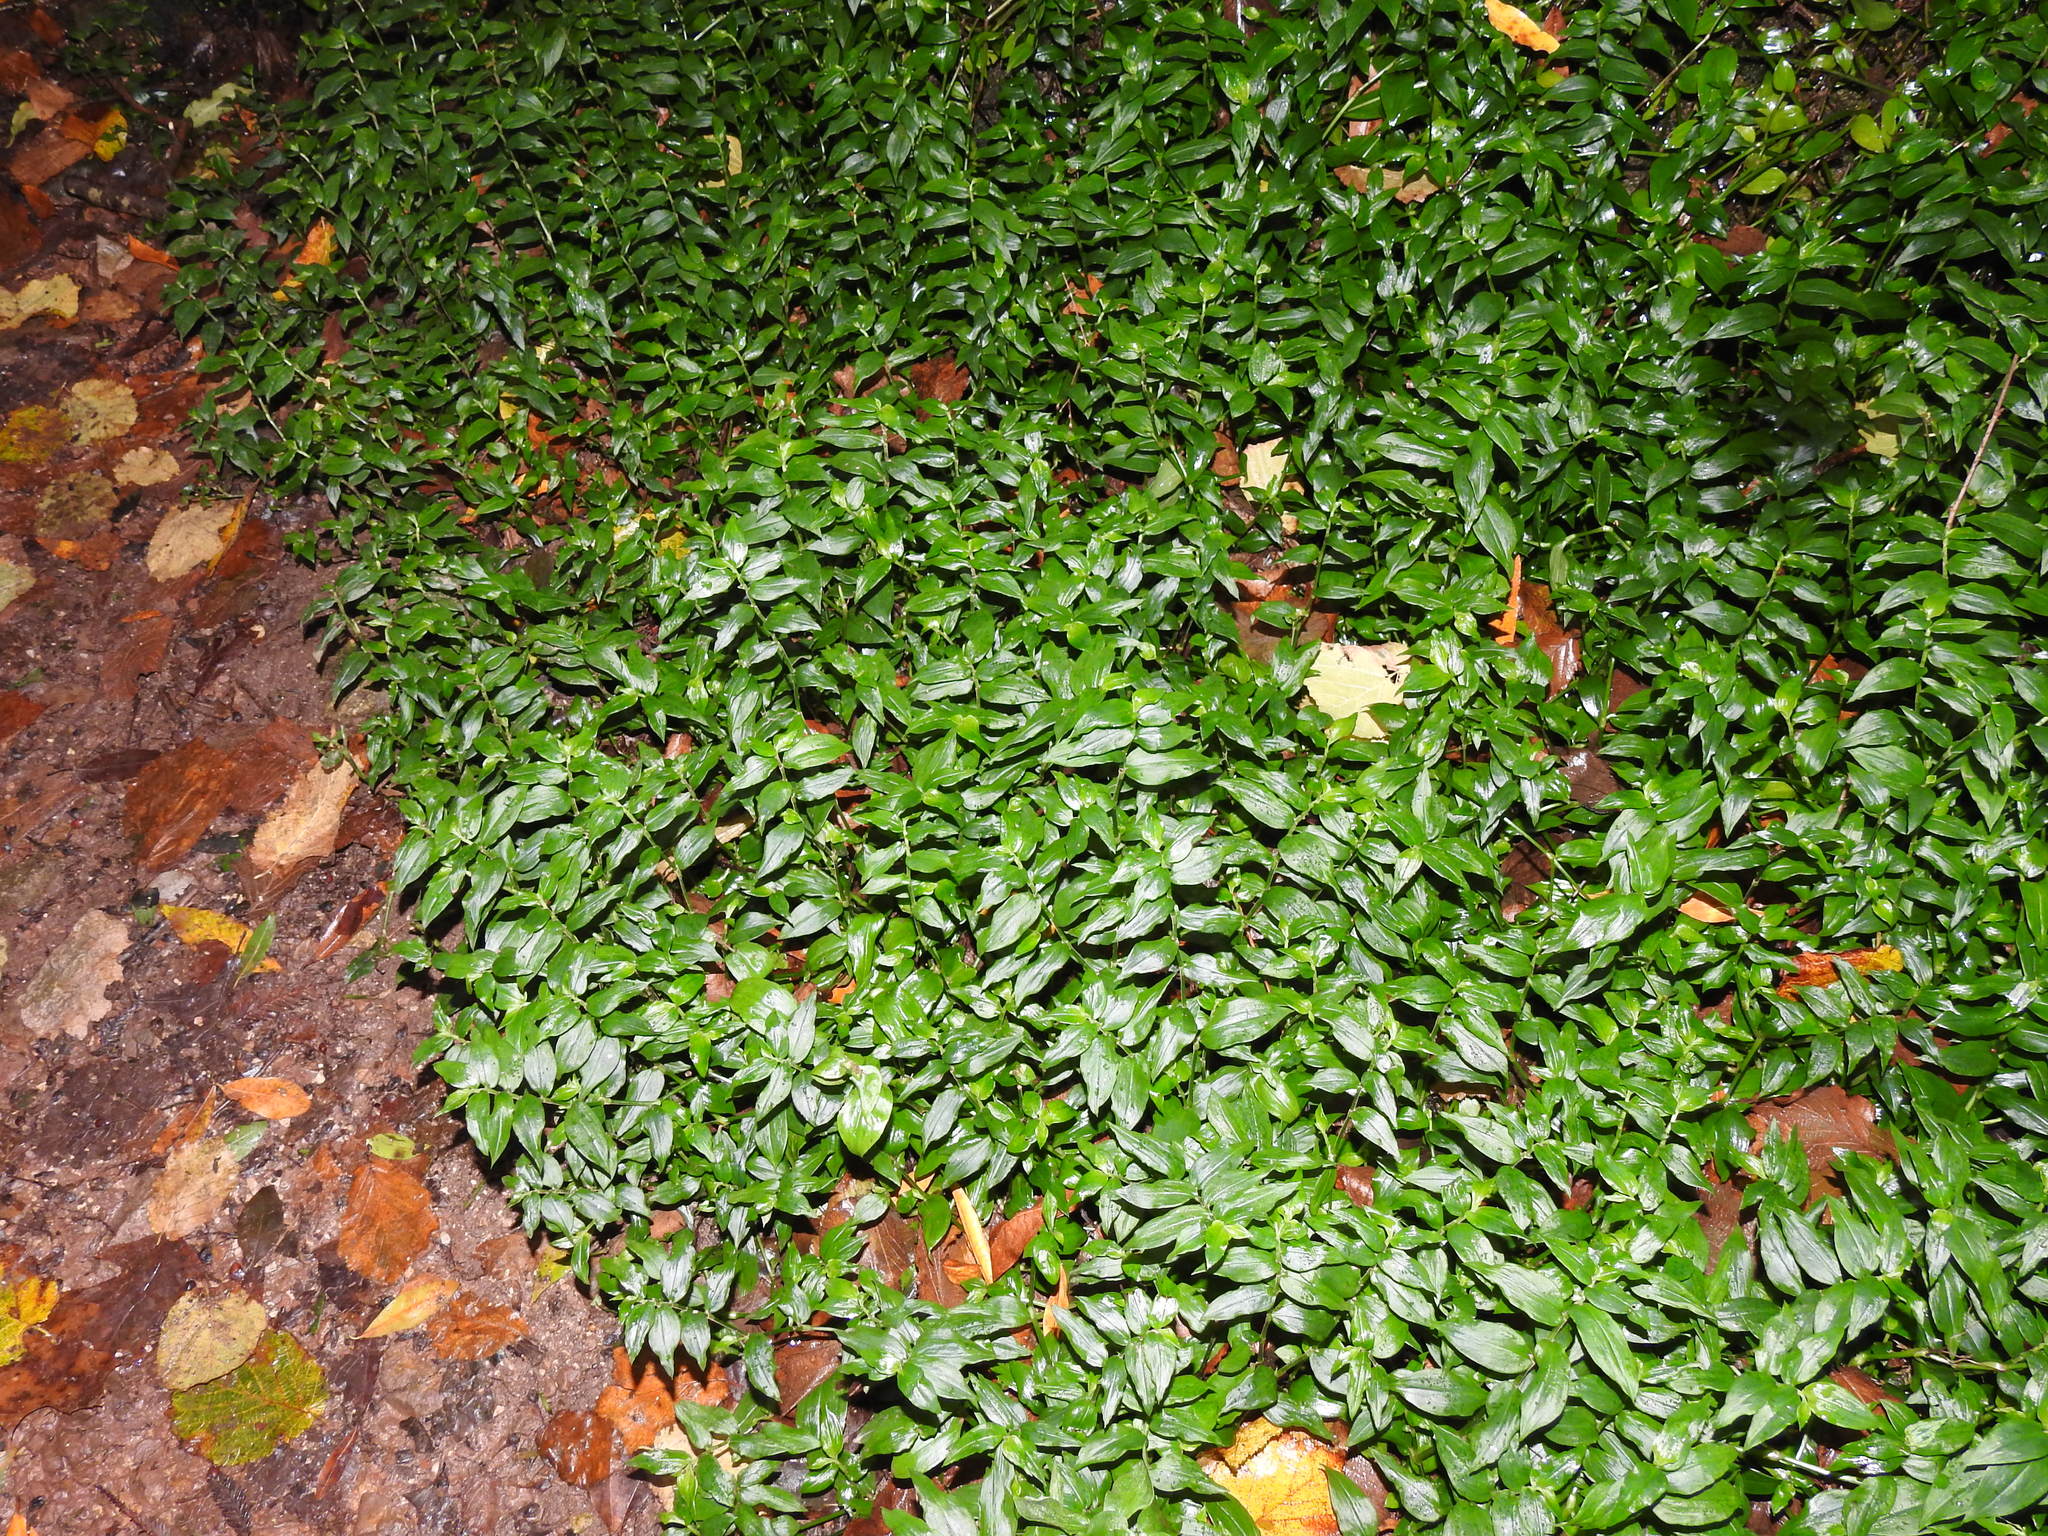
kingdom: Plantae
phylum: Tracheophyta
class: Liliopsida
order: Commelinales
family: Commelinaceae
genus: Tradescantia
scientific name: Tradescantia fluminensis
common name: Wandering-jew
